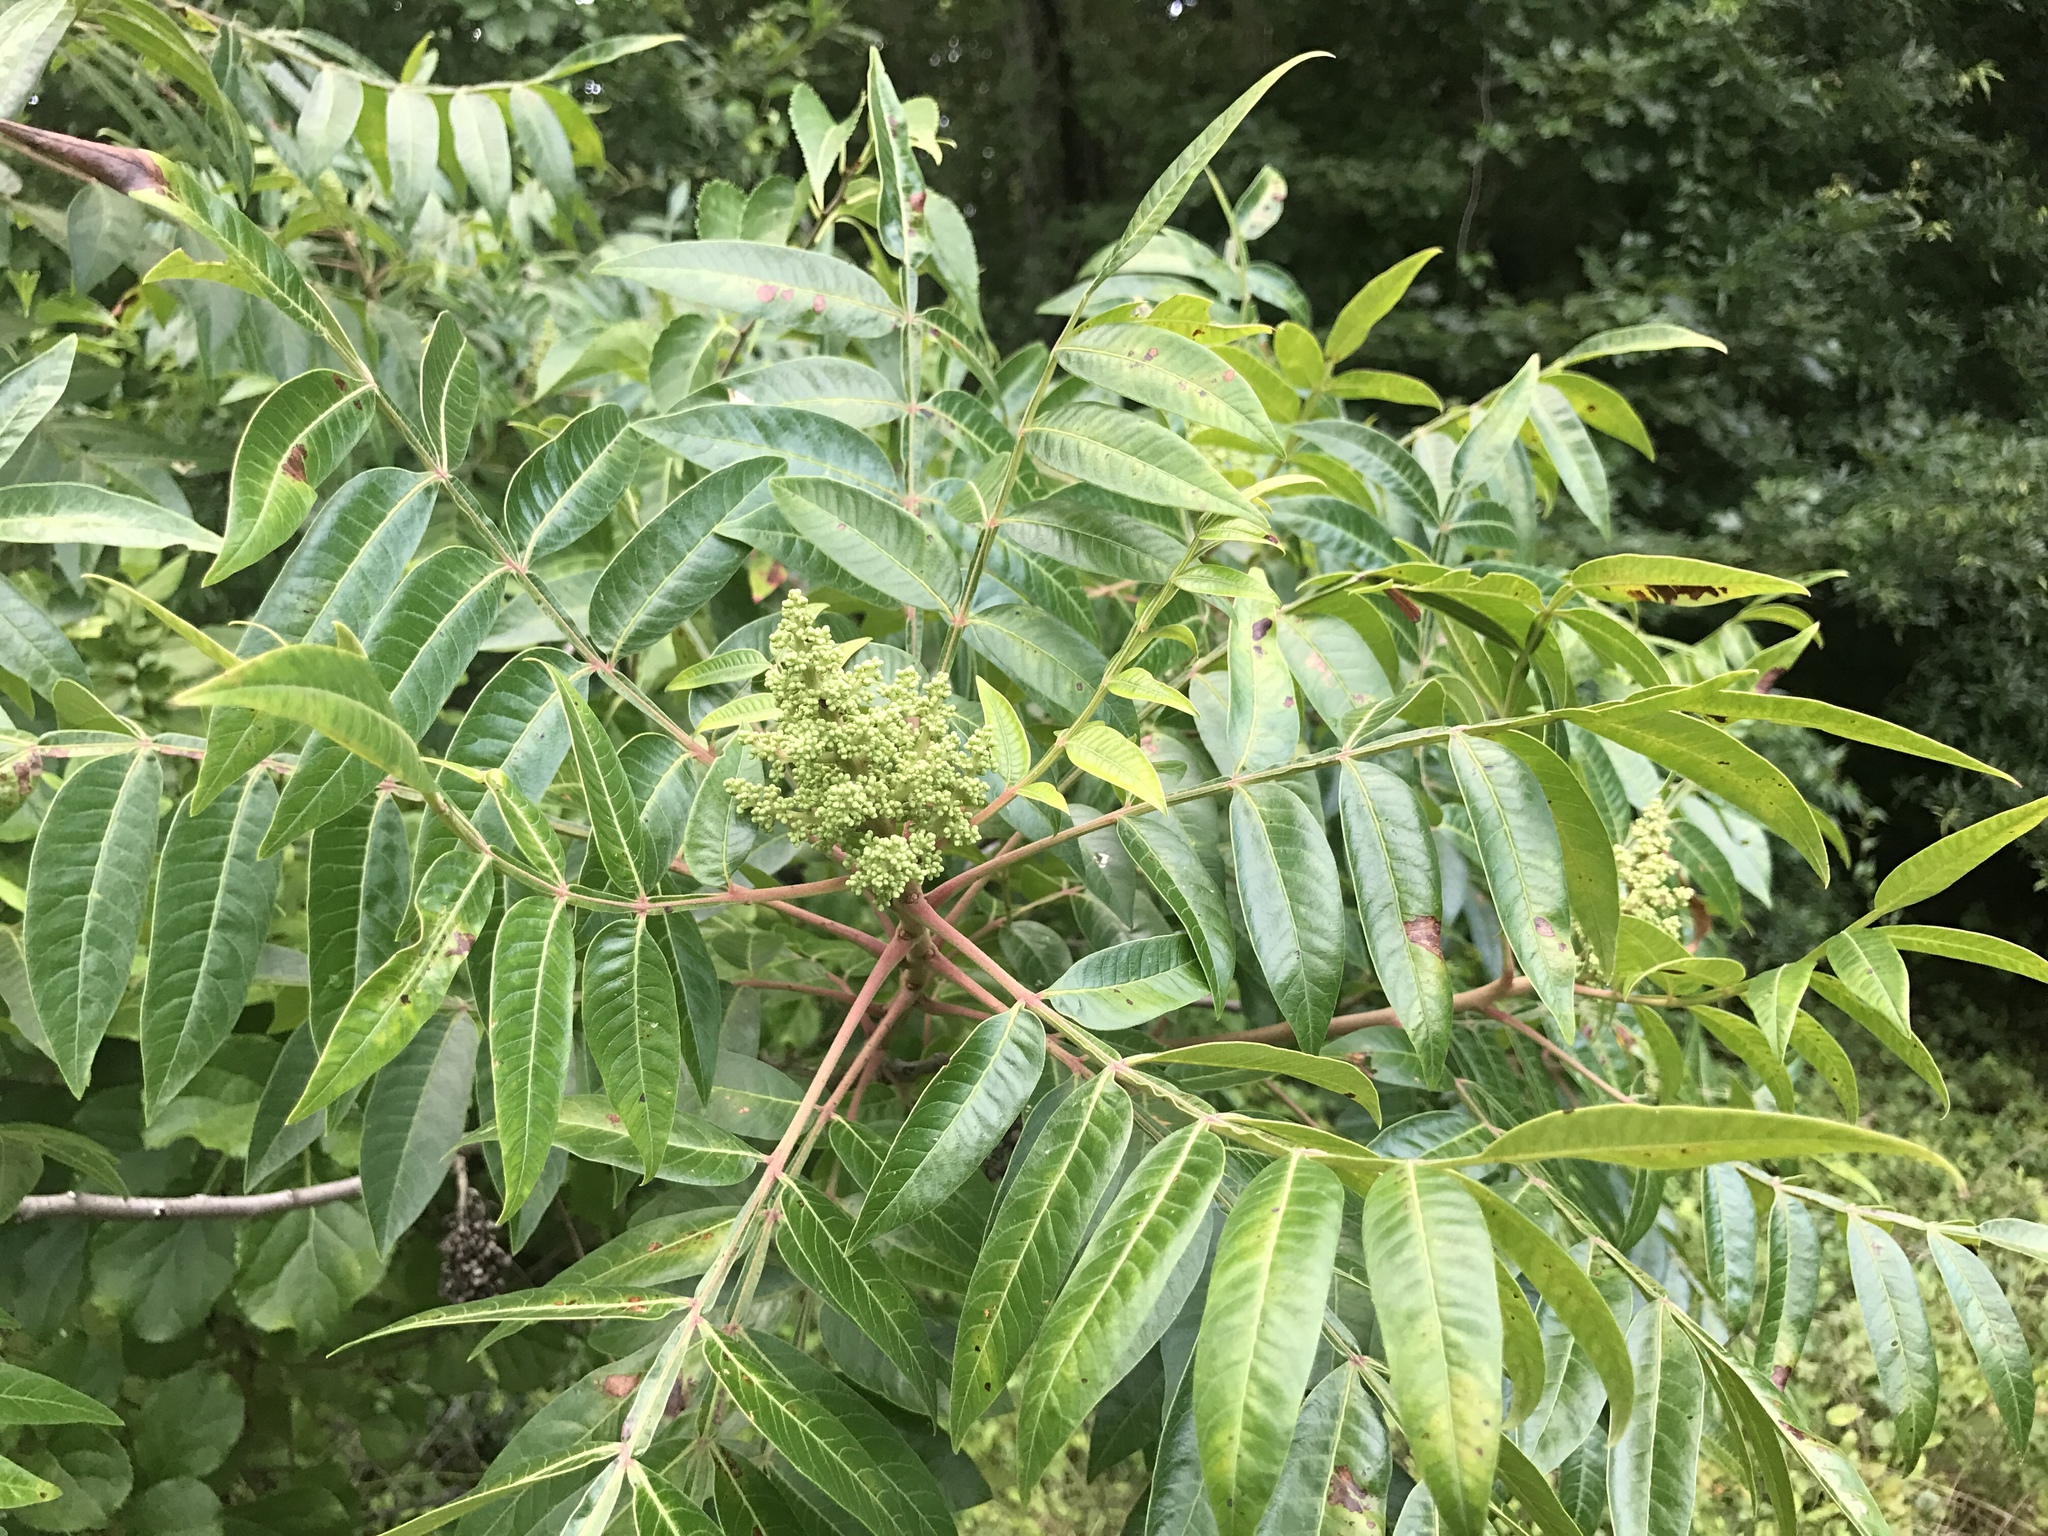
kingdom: Plantae
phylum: Tracheophyta
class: Magnoliopsida
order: Sapindales
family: Anacardiaceae
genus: Rhus
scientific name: Rhus copallina
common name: Shining sumac
